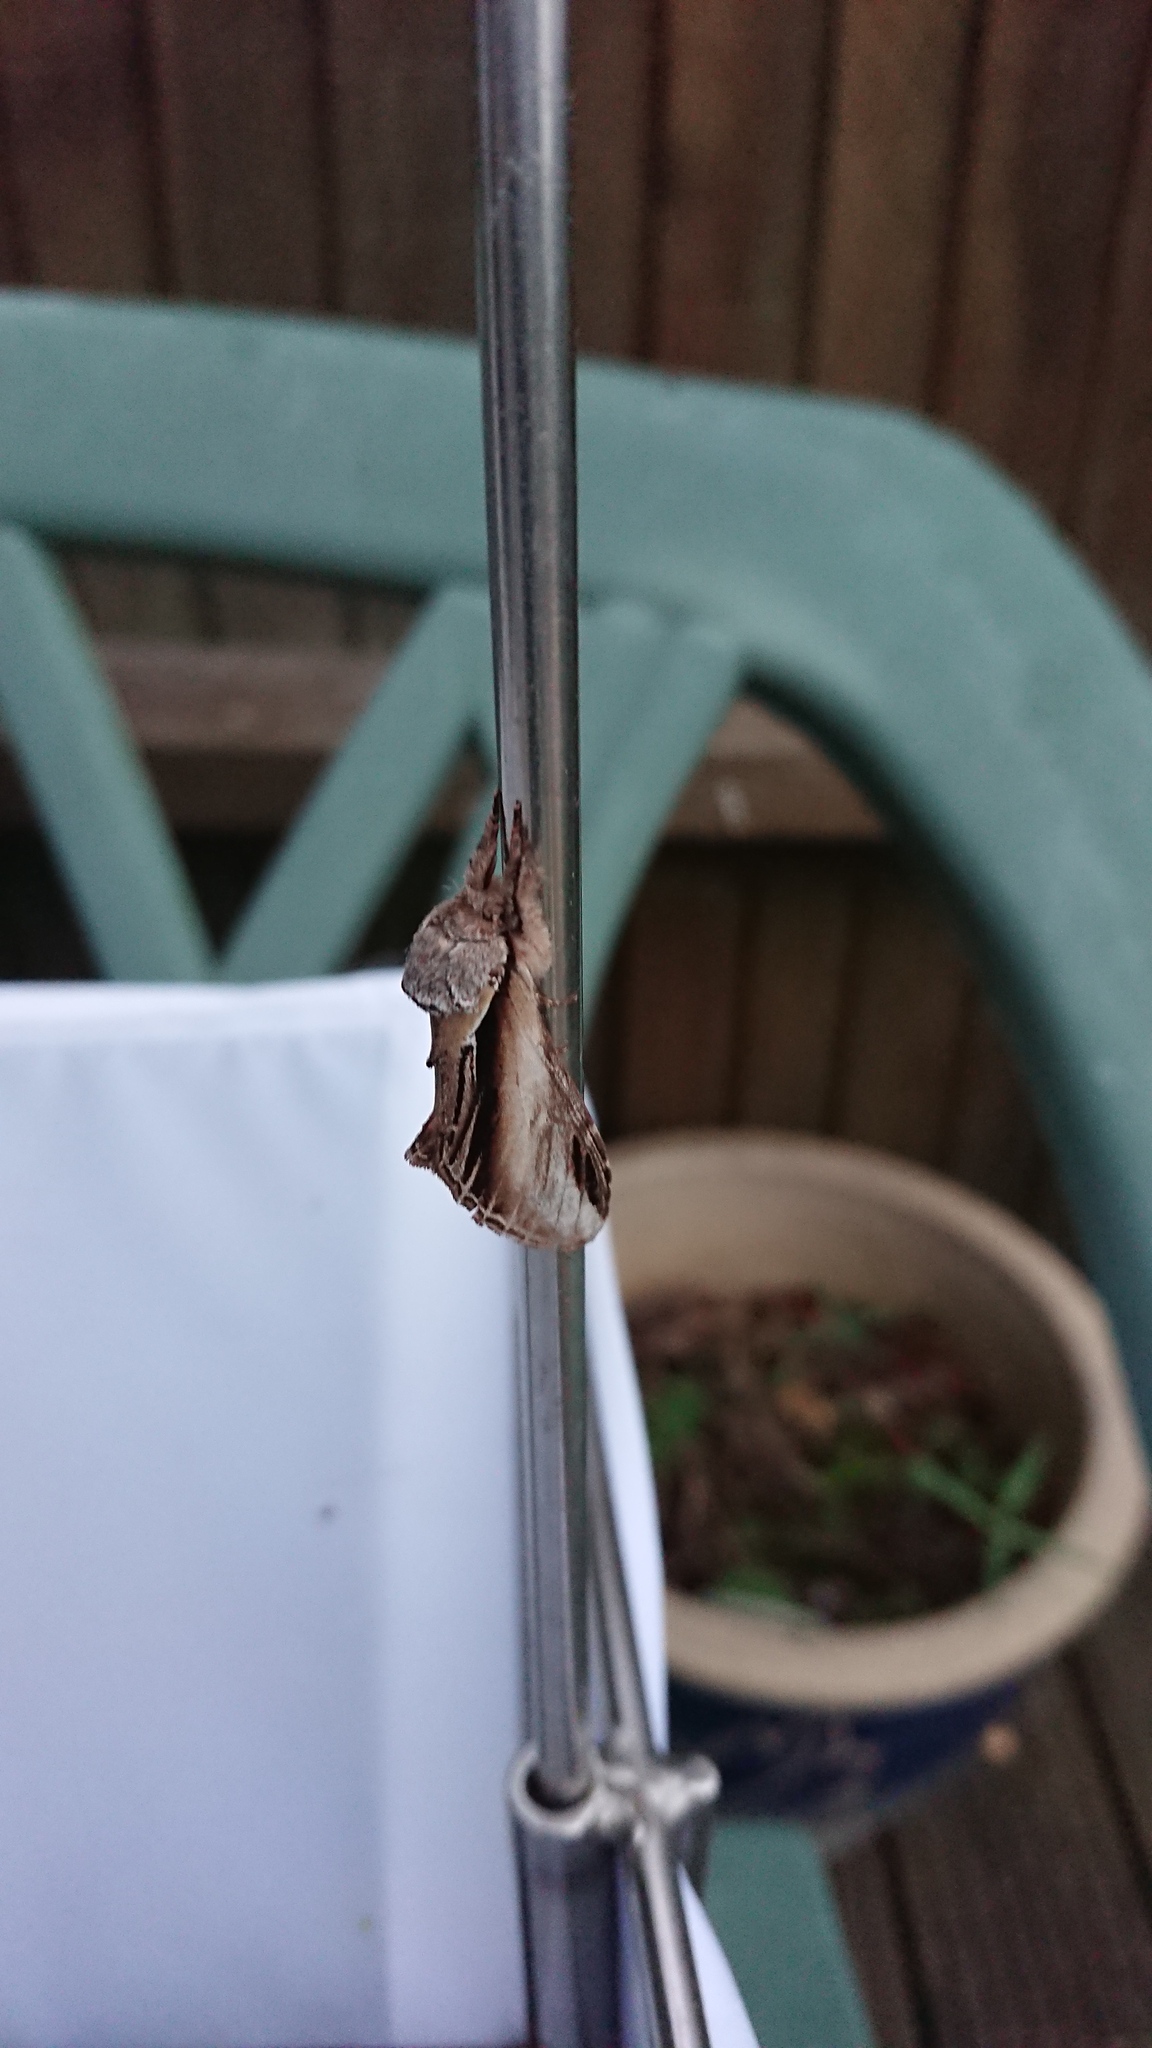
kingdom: Animalia
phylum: Arthropoda
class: Insecta
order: Lepidoptera
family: Notodontidae
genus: Pheosia
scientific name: Pheosia tremula
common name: Swallow prominent
